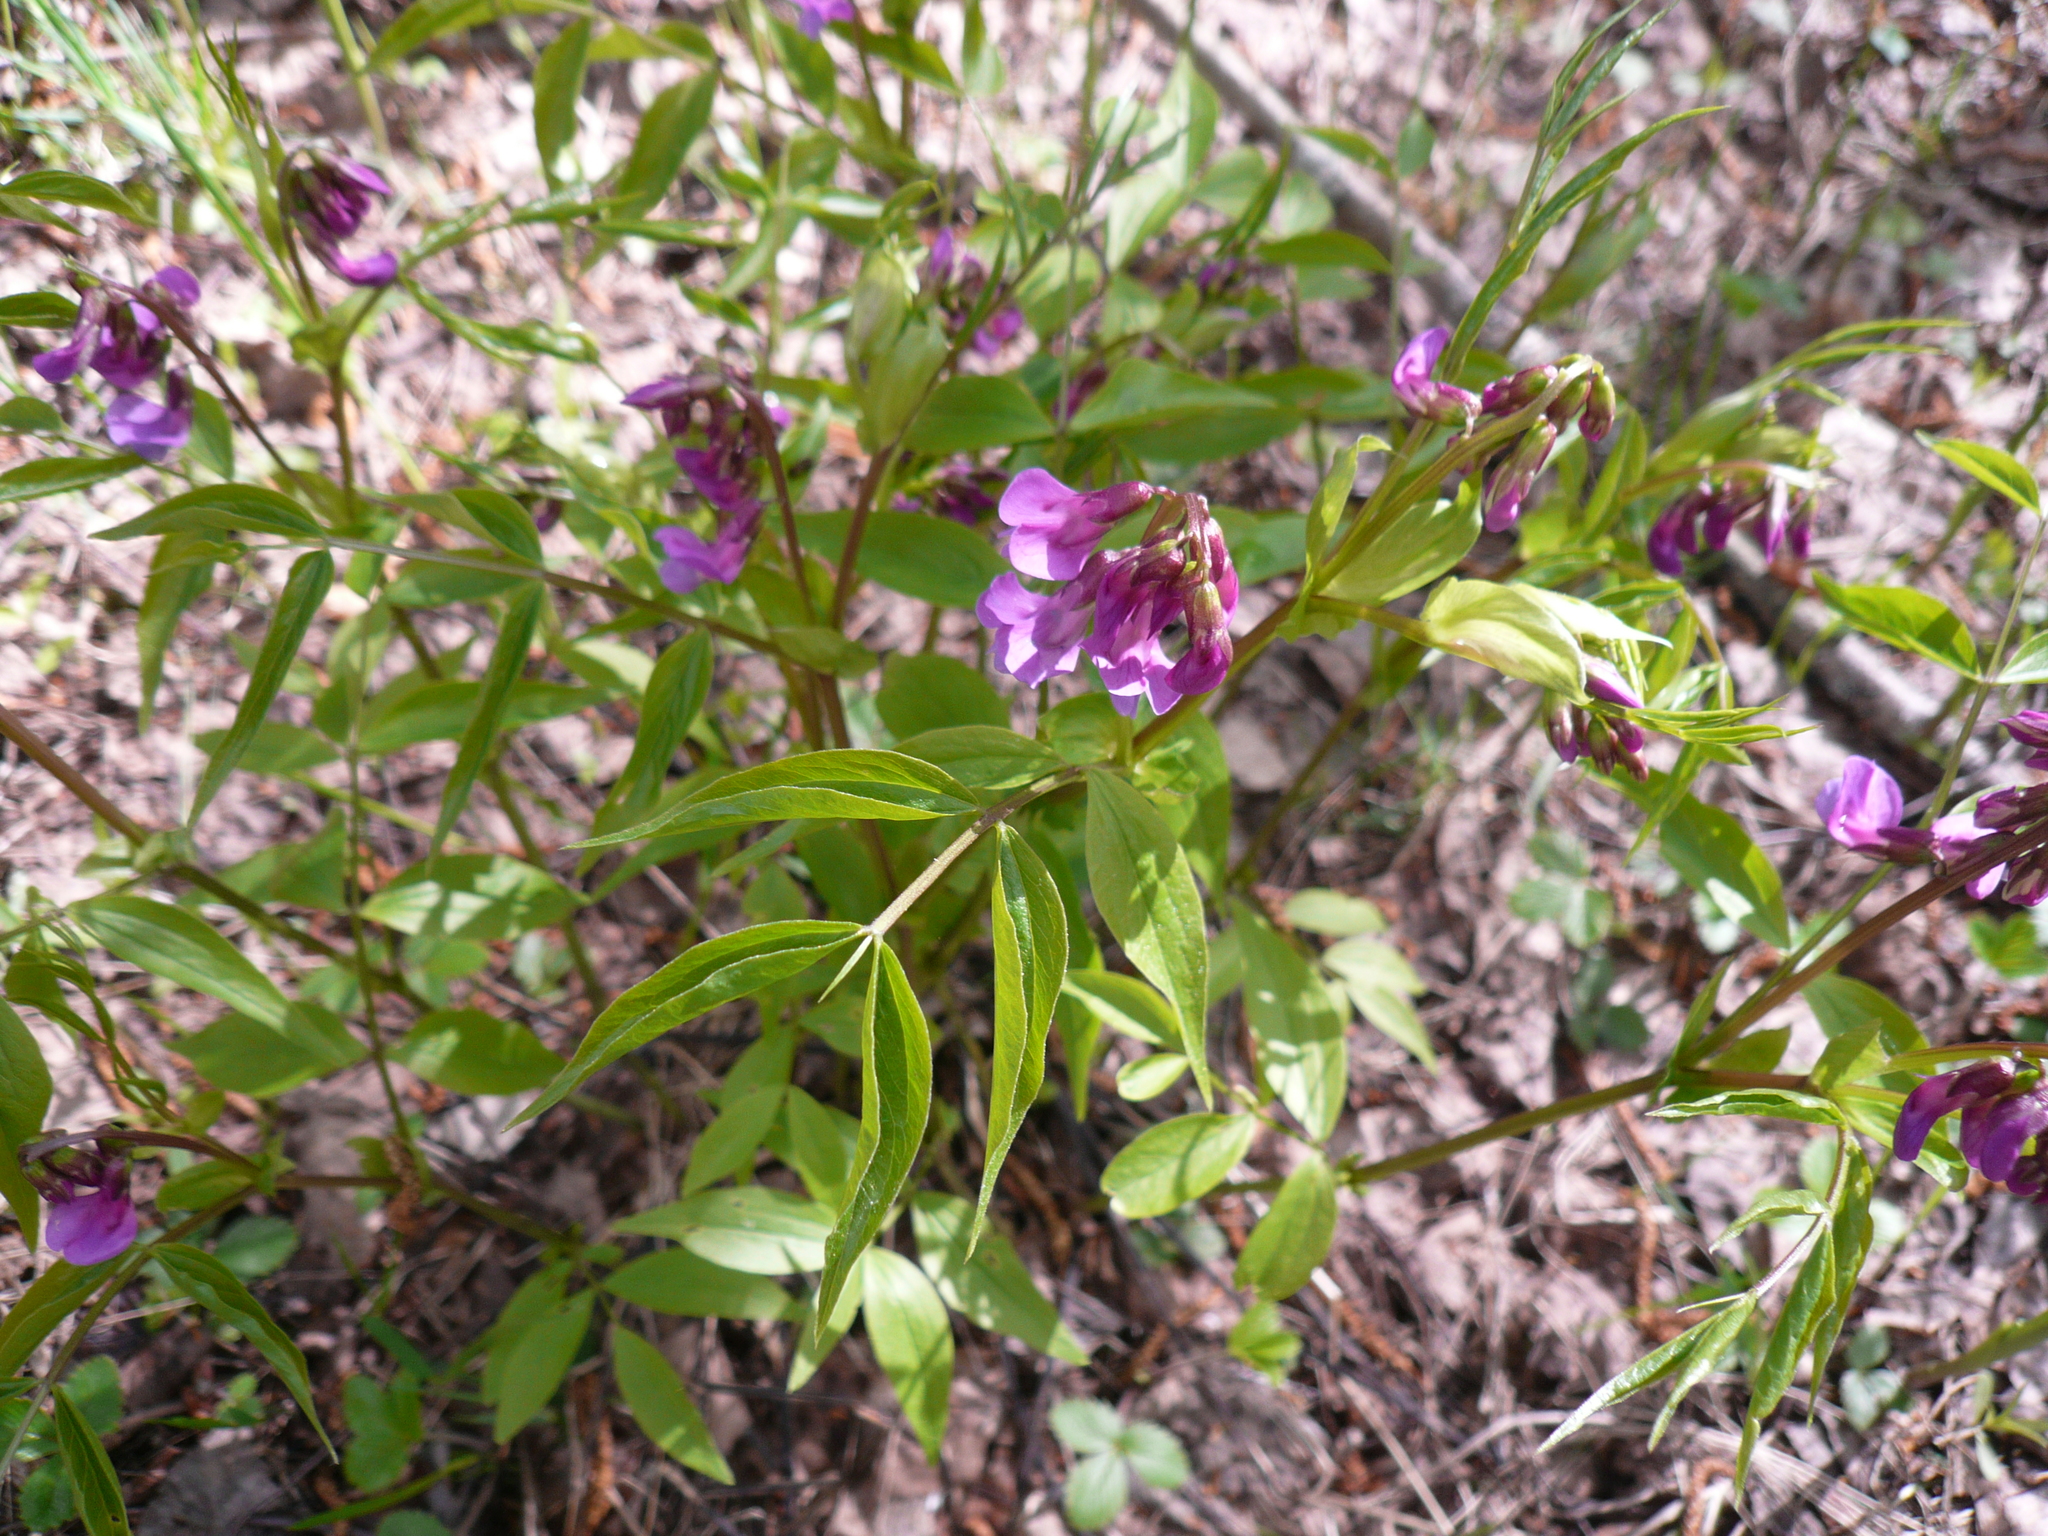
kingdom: Plantae
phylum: Tracheophyta
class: Magnoliopsida
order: Fabales
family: Fabaceae
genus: Lathyrus
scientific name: Lathyrus vernus
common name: Spring pea
